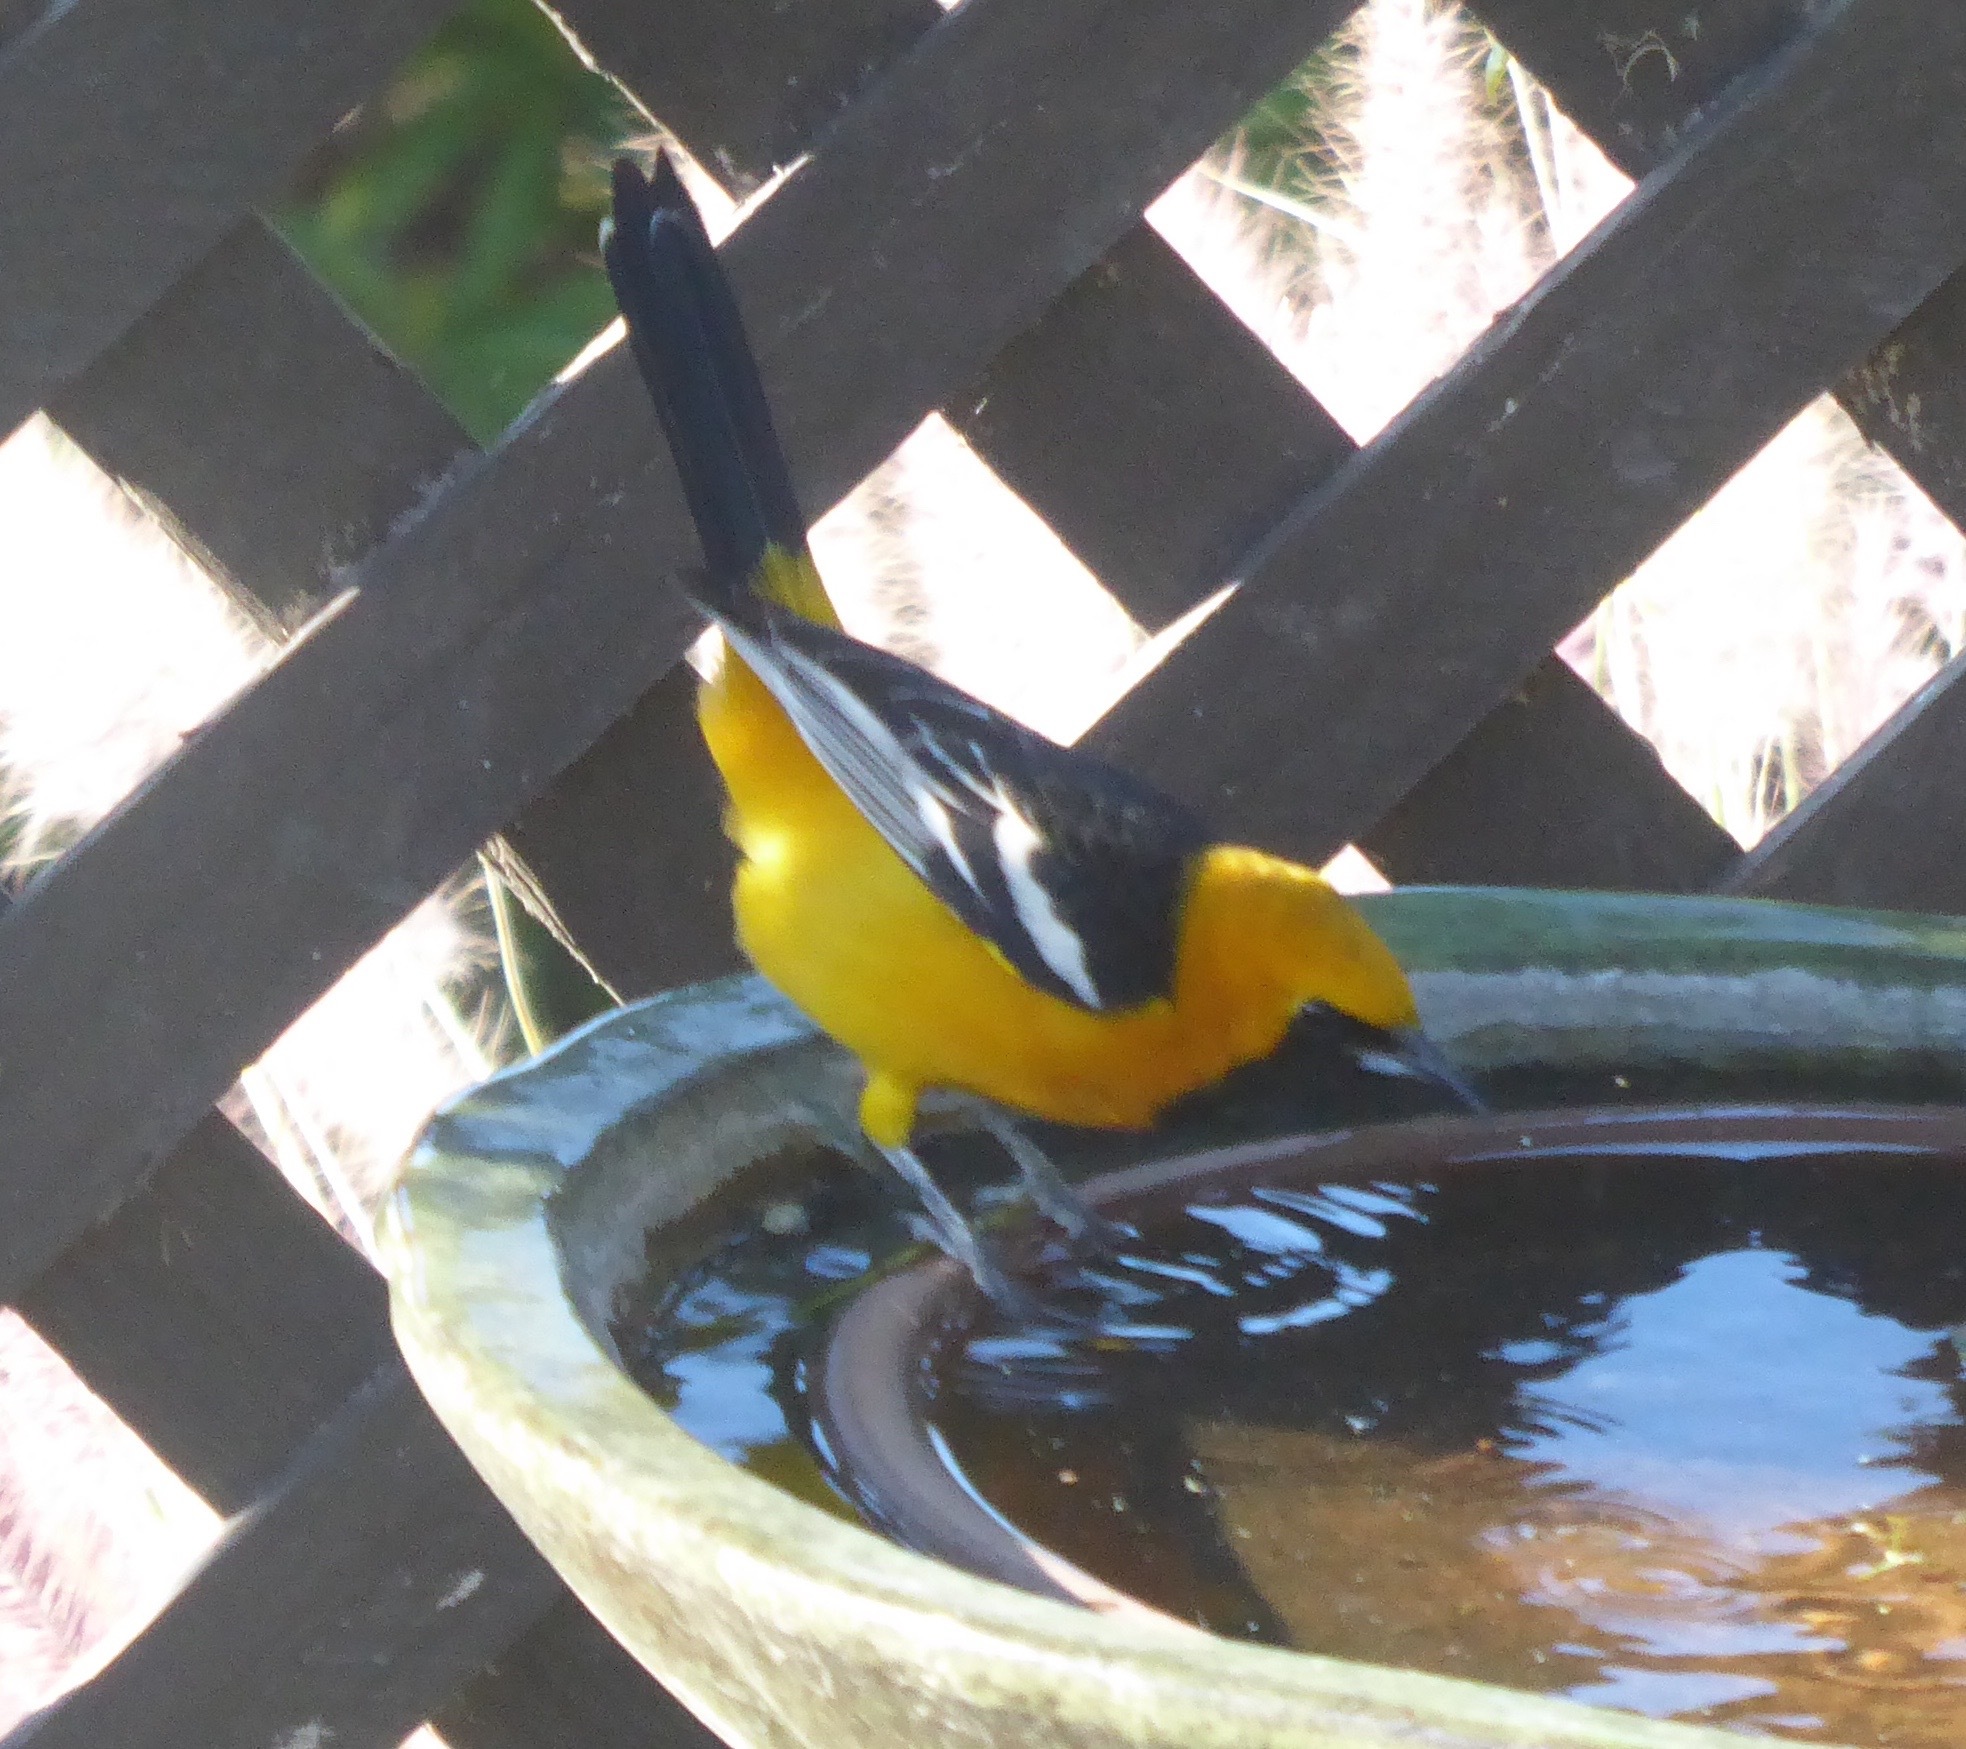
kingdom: Animalia
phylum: Chordata
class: Aves
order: Passeriformes
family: Icteridae
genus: Icterus
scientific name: Icterus cucullatus
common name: Hooded oriole
